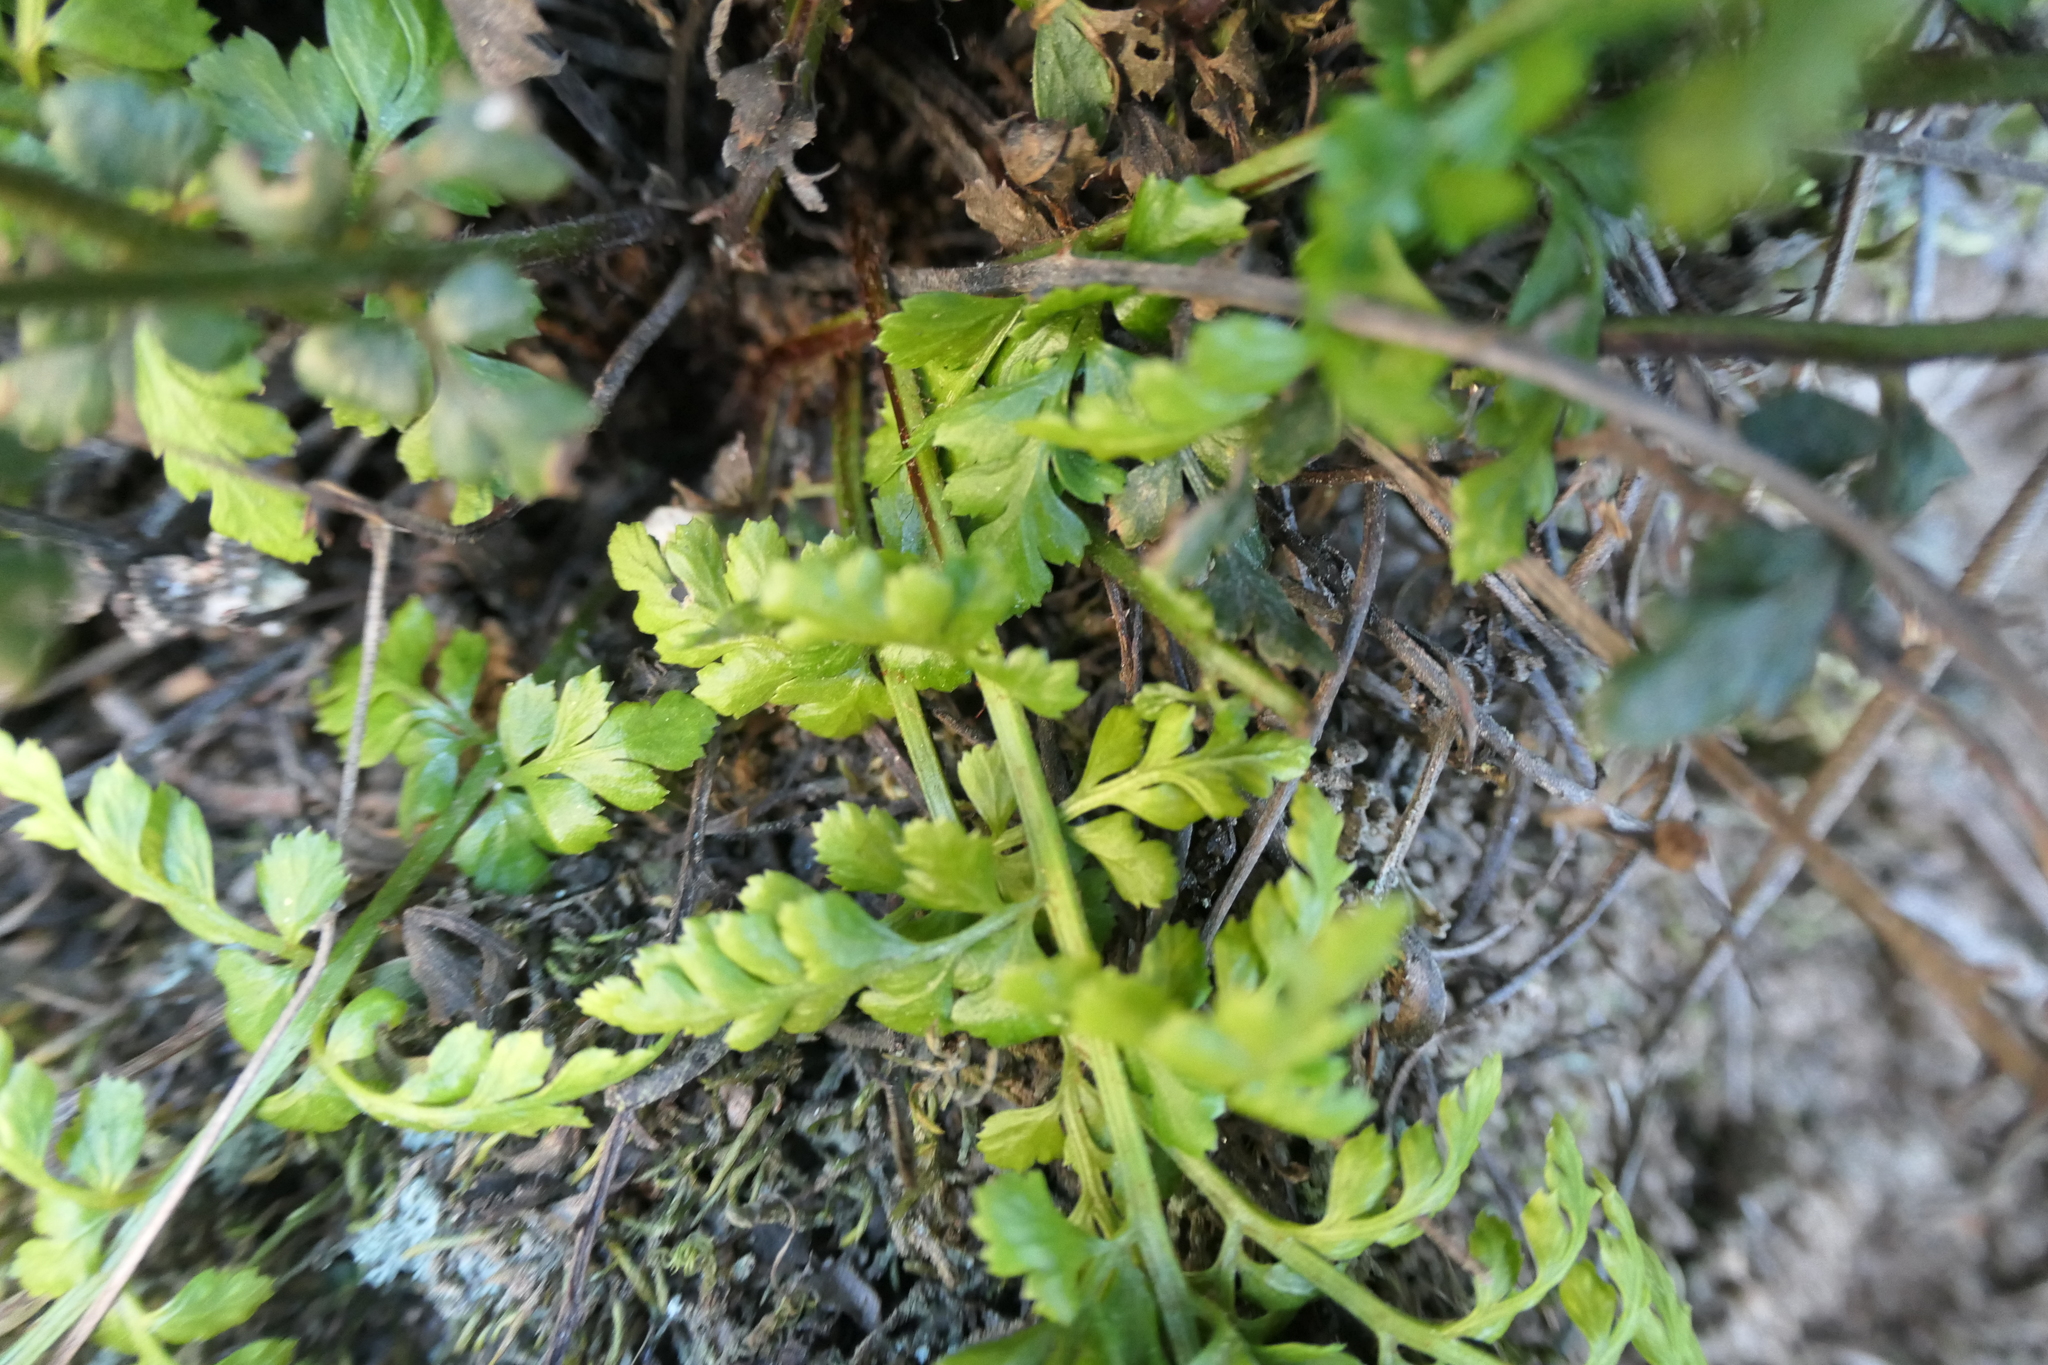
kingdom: Plantae
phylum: Tracheophyta
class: Polypodiopsida
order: Polypodiales
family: Aspleniaceae
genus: Asplenium
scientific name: Asplenium obovatum
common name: Lanceolate spleenwort
